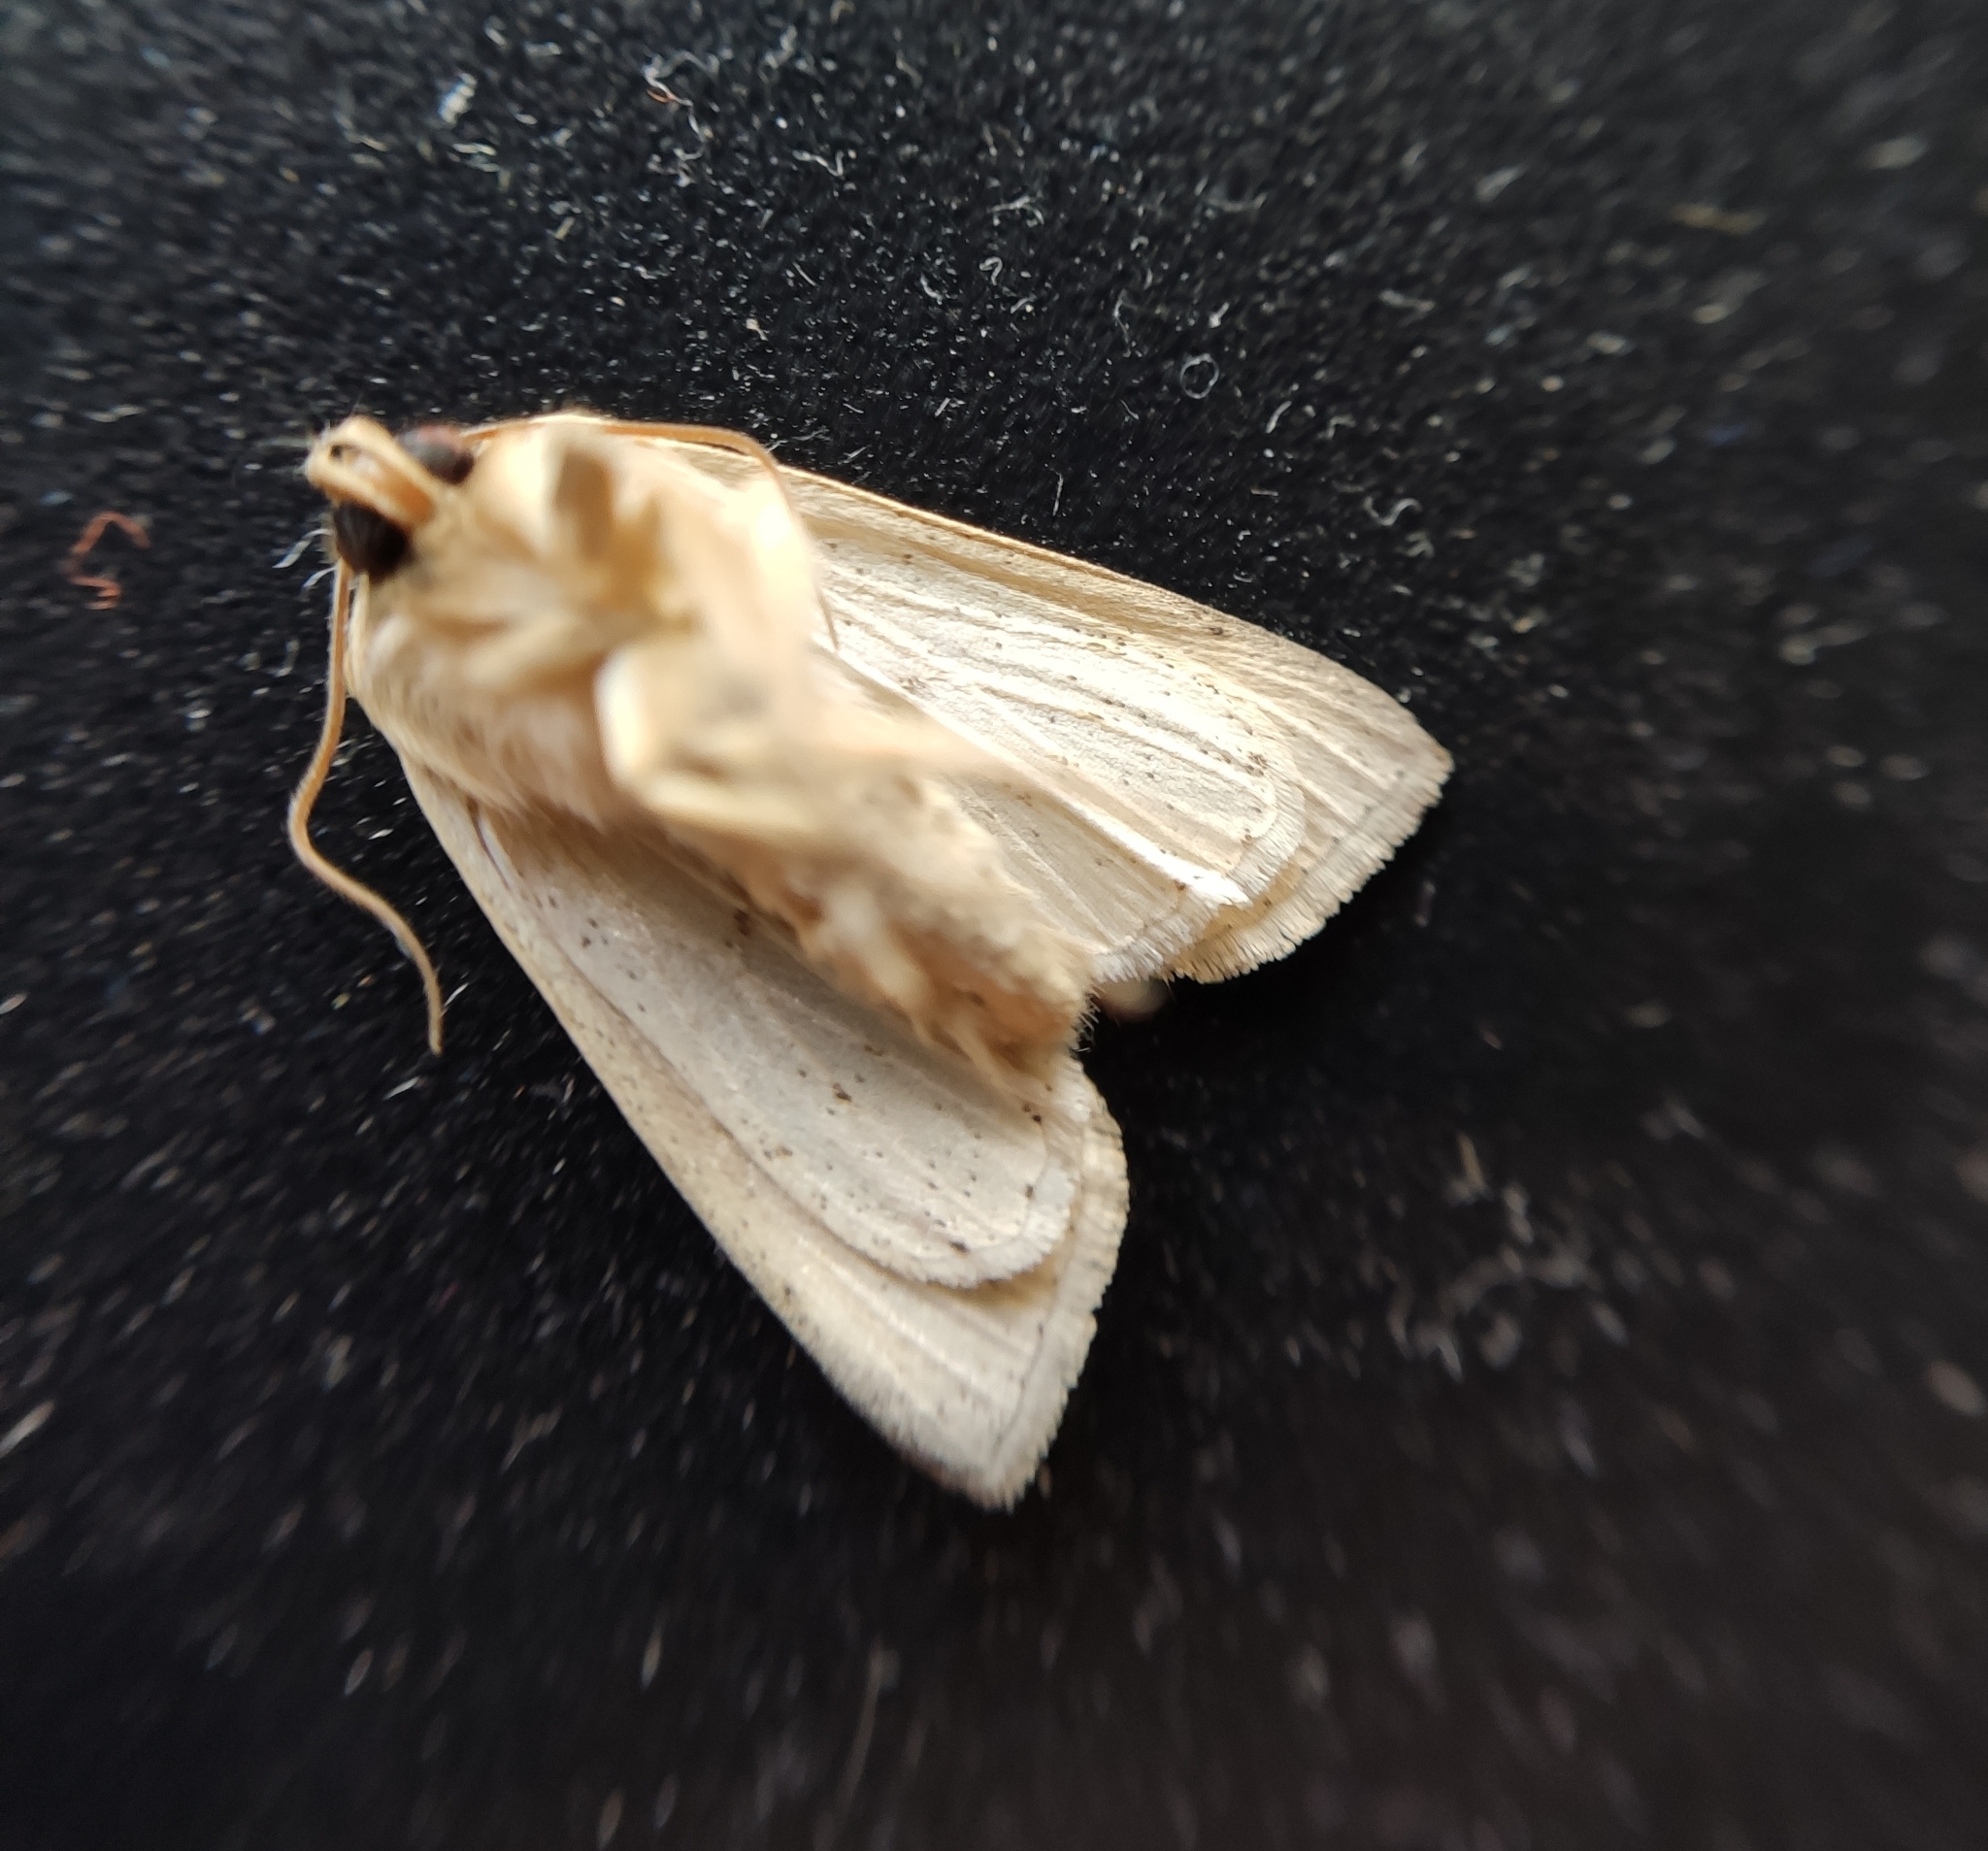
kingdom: Animalia
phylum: Arthropoda
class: Insecta
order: Lepidoptera
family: Noctuidae
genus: Mythimna
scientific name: Mythimna pallens
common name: Common wainscot
